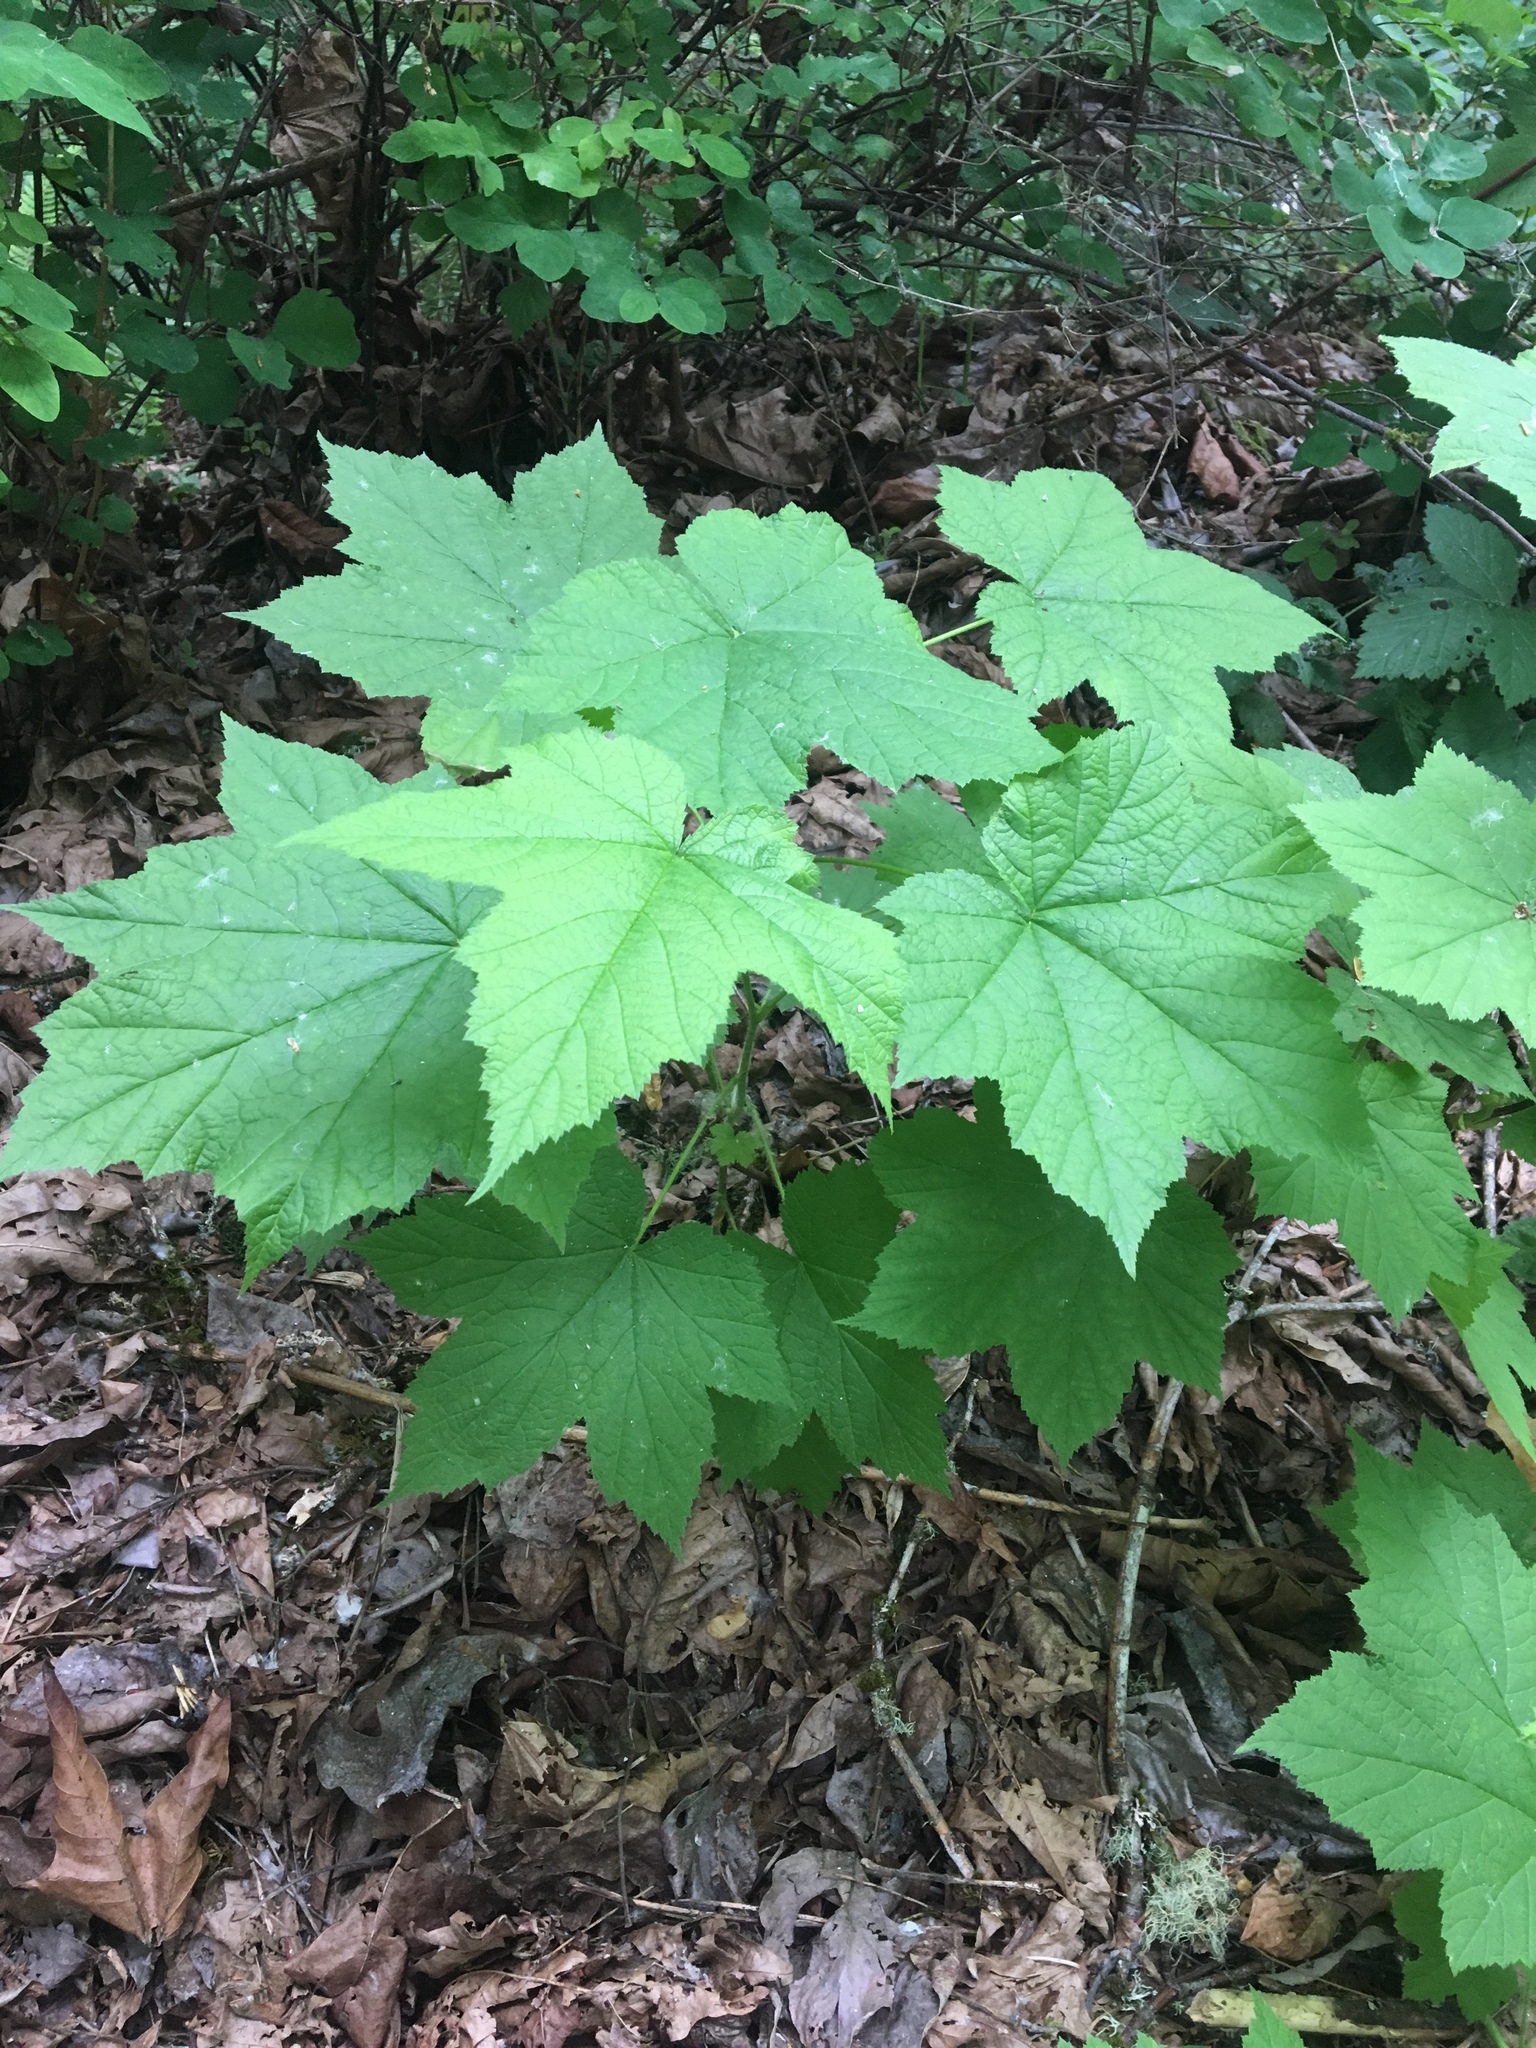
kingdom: Plantae
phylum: Tracheophyta
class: Magnoliopsida
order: Rosales
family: Rosaceae
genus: Rubus
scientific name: Rubus parviflorus
